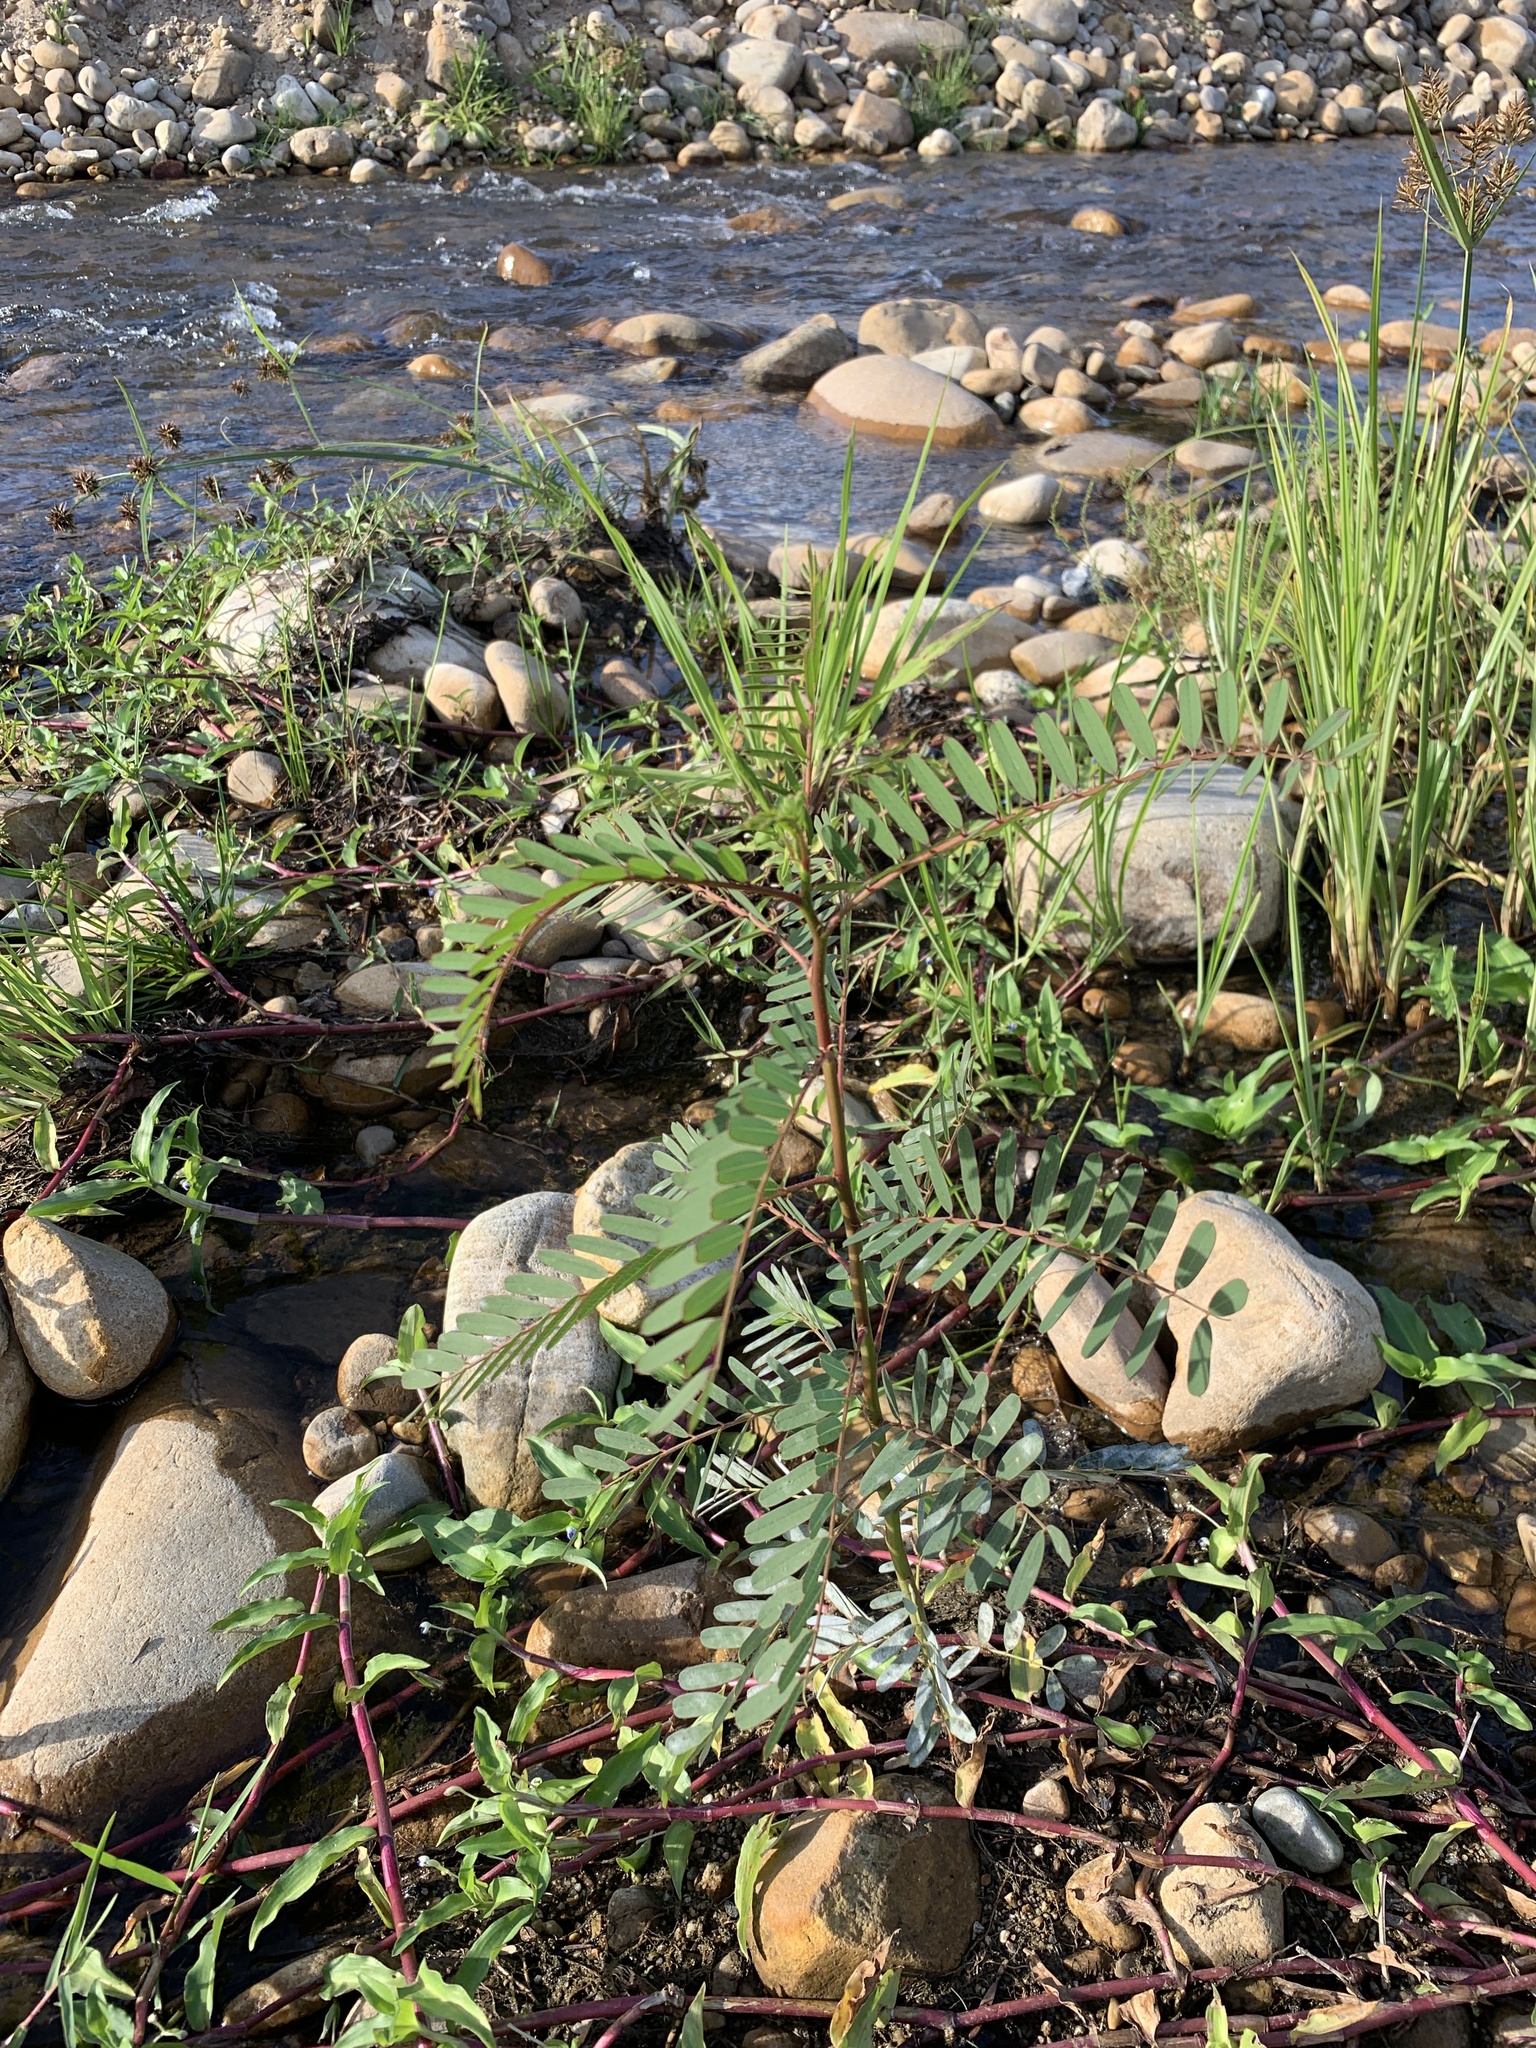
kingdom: Plantae
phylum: Tracheophyta
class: Magnoliopsida
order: Fabales
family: Fabaceae
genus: Sesbania
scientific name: Sesbania punicea
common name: Rattlebox
